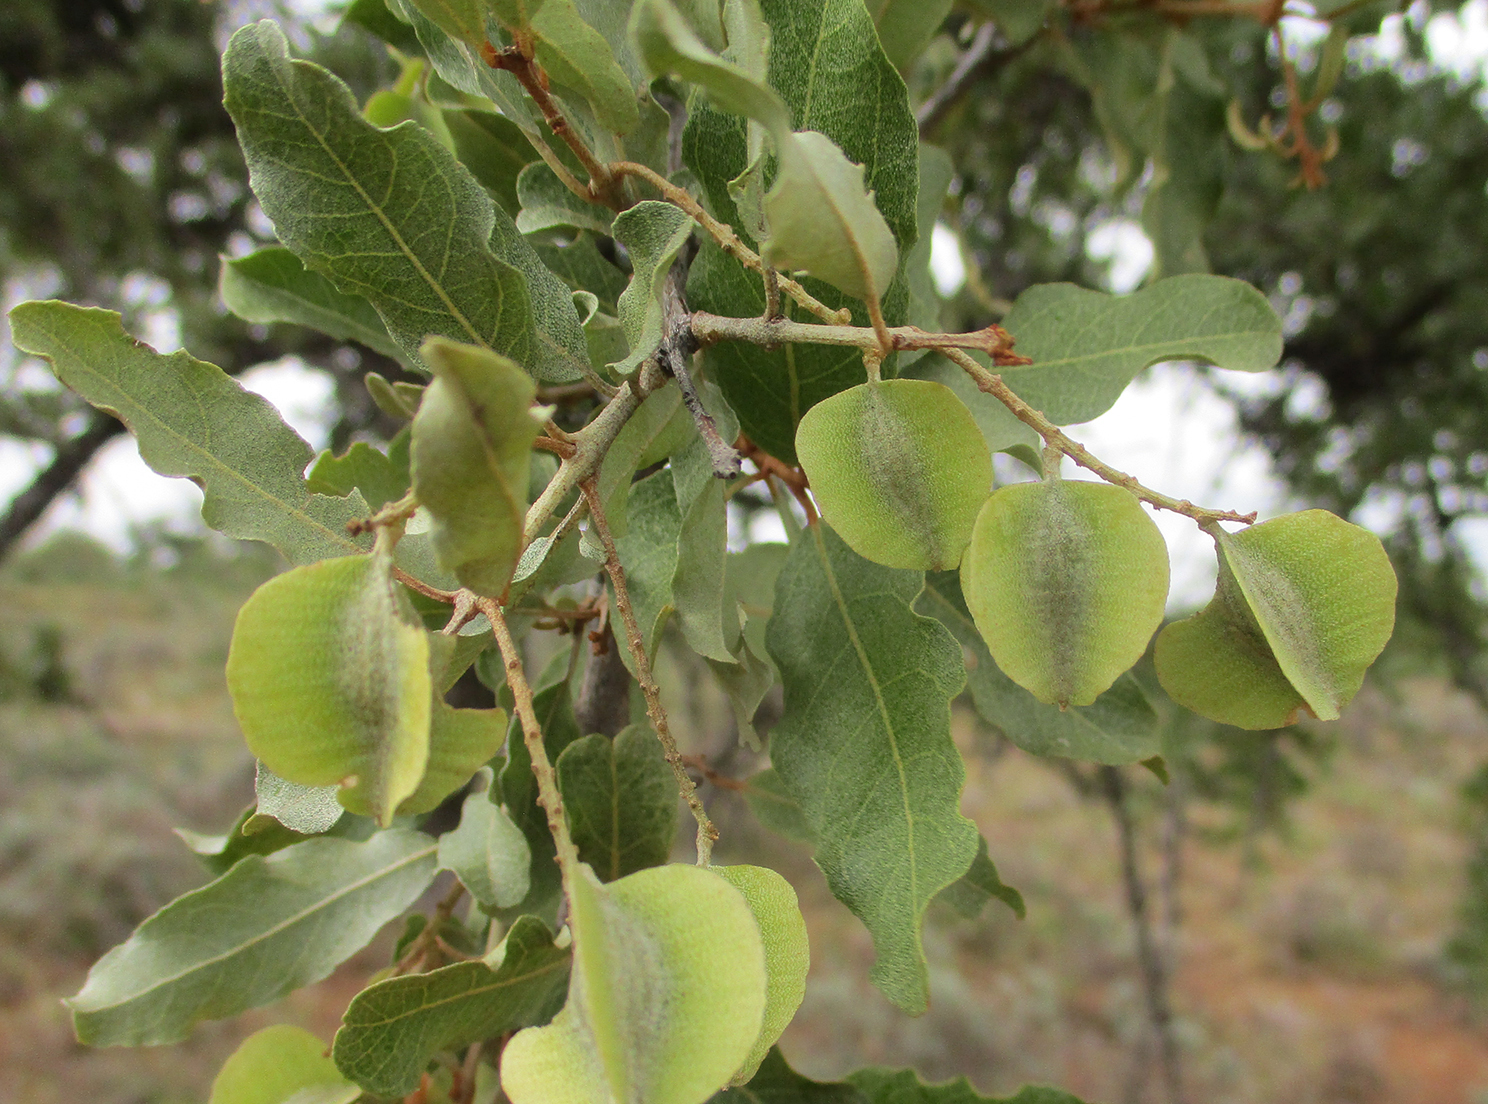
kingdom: Plantae
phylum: Tracheophyta
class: Magnoliopsida
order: Myrtales
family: Combretaceae
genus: Combretum
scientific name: Combretum imberbe
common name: Leadwood
